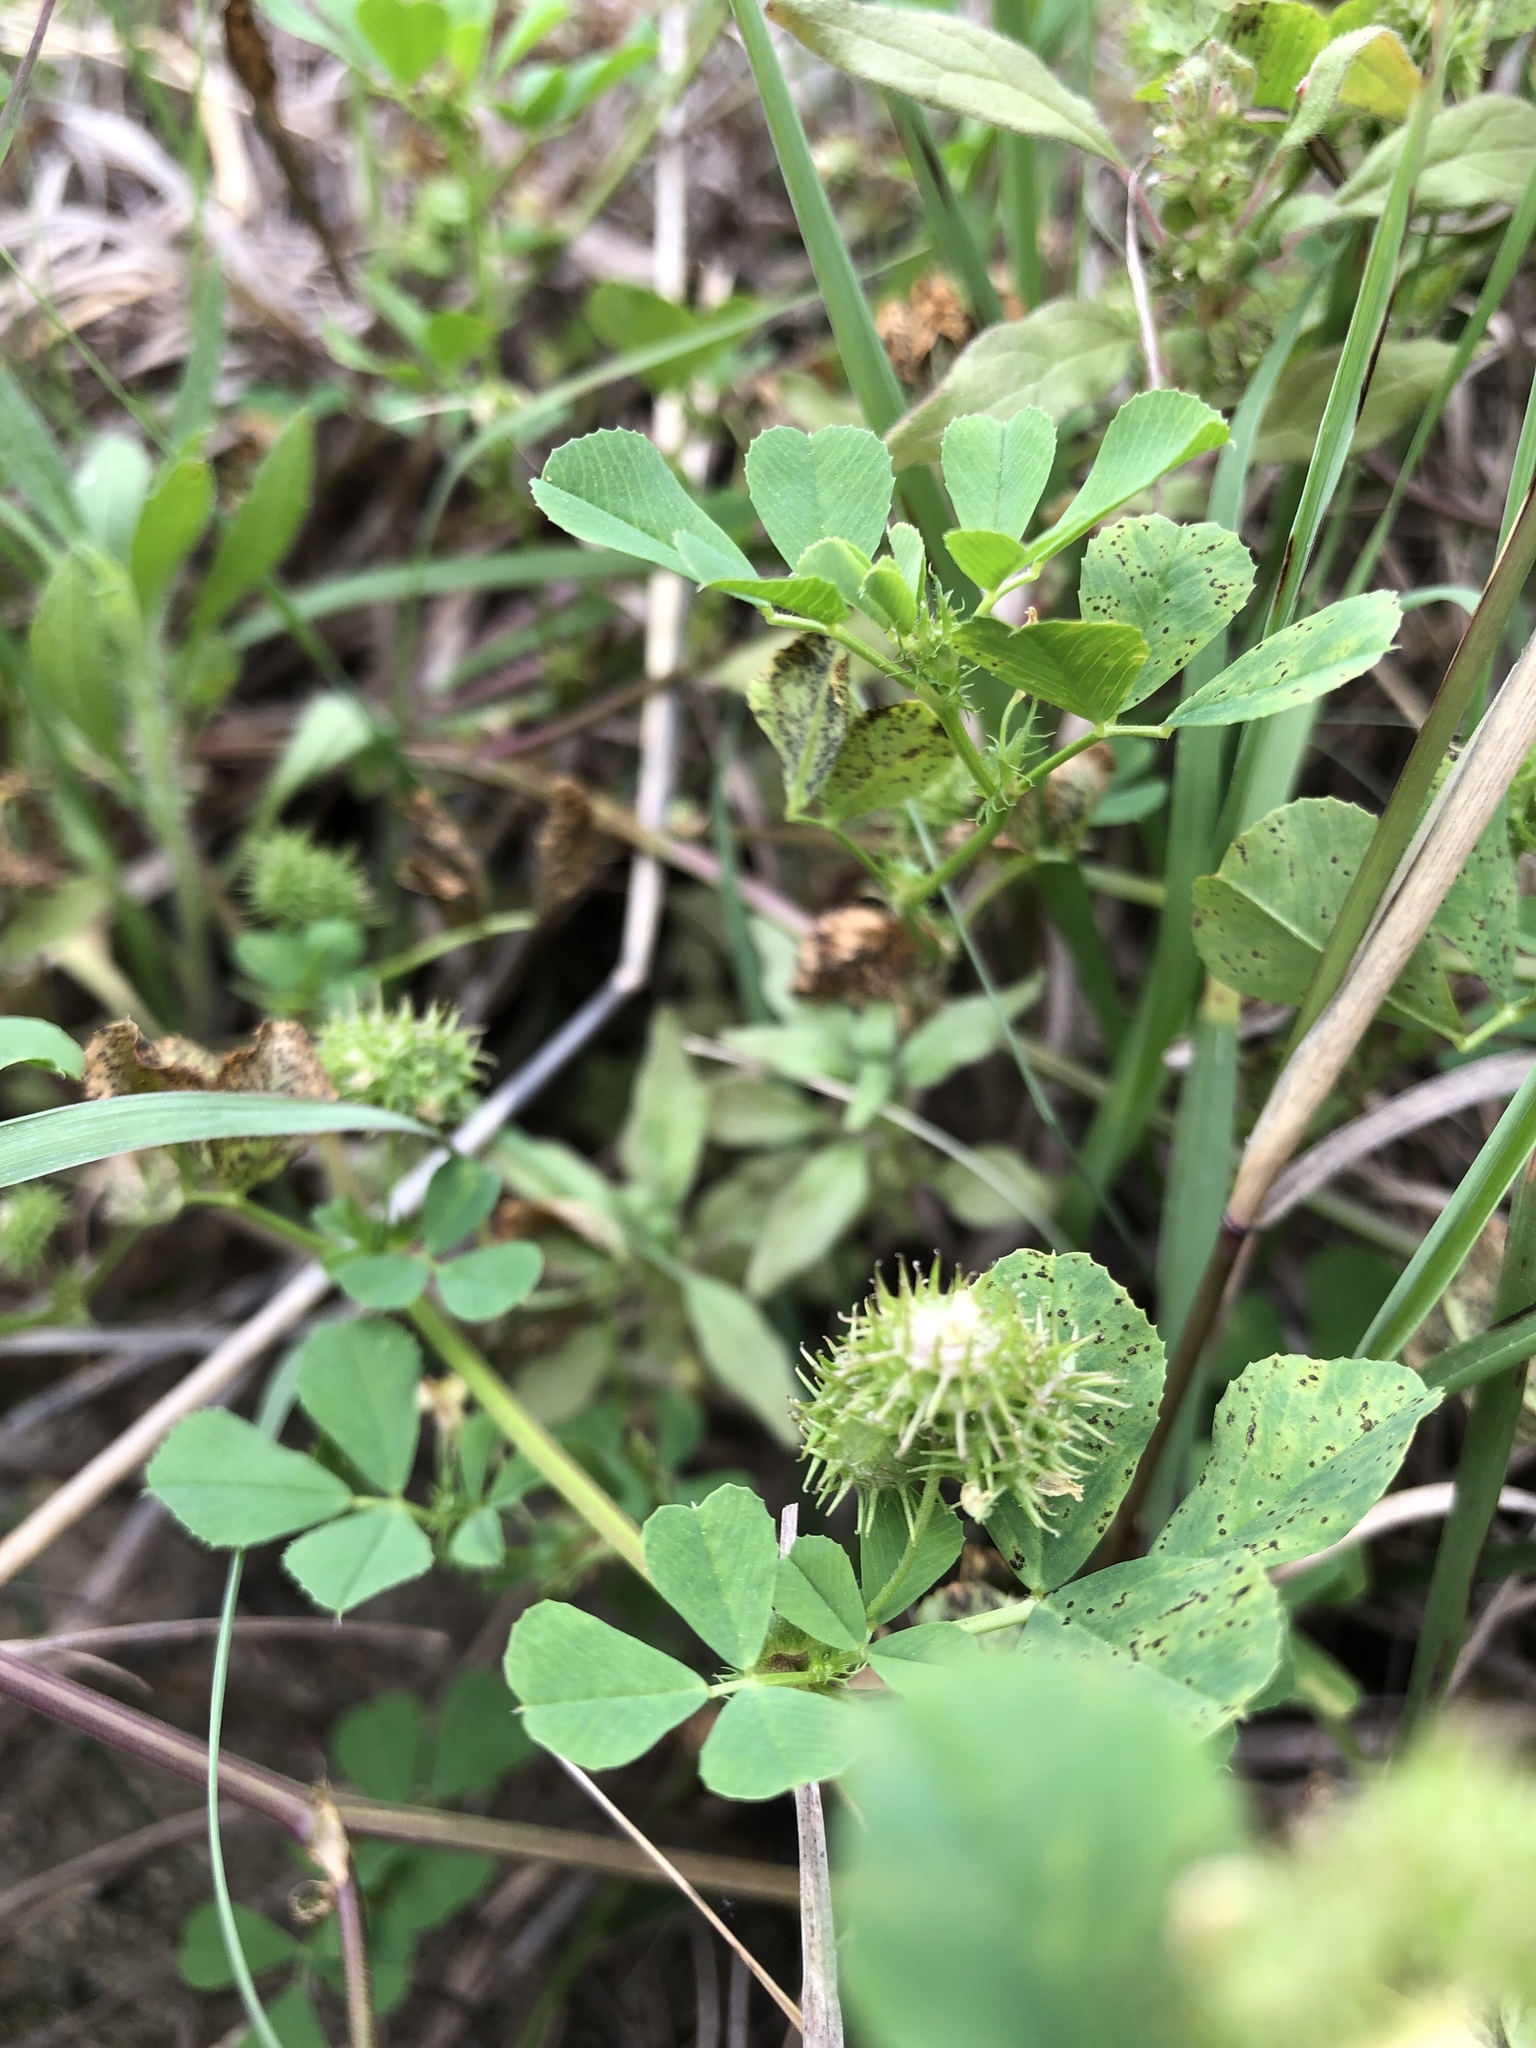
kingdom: Plantae
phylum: Tracheophyta
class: Magnoliopsida
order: Fabales
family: Fabaceae
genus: Medicago
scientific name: Medicago polymorpha
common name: Burclover
